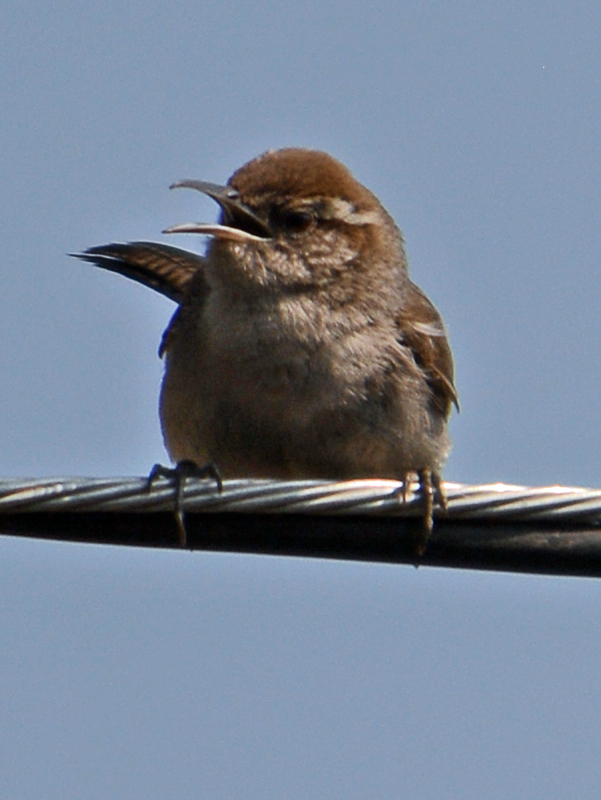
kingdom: Animalia
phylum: Chordata
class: Aves
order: Passeriformes
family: Troglodytidae
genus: Thryomanes
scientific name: Thryomanes bewickii
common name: Bewick's wren
